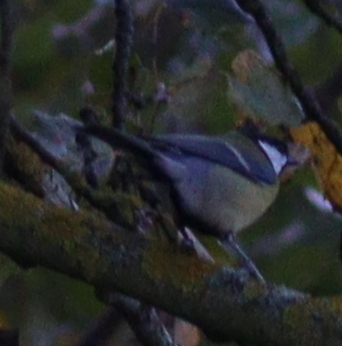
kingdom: Animalia
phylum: Chordata
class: Aves
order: Passeriformes
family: Paridae
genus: Parus
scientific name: Parus major
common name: Great tit
